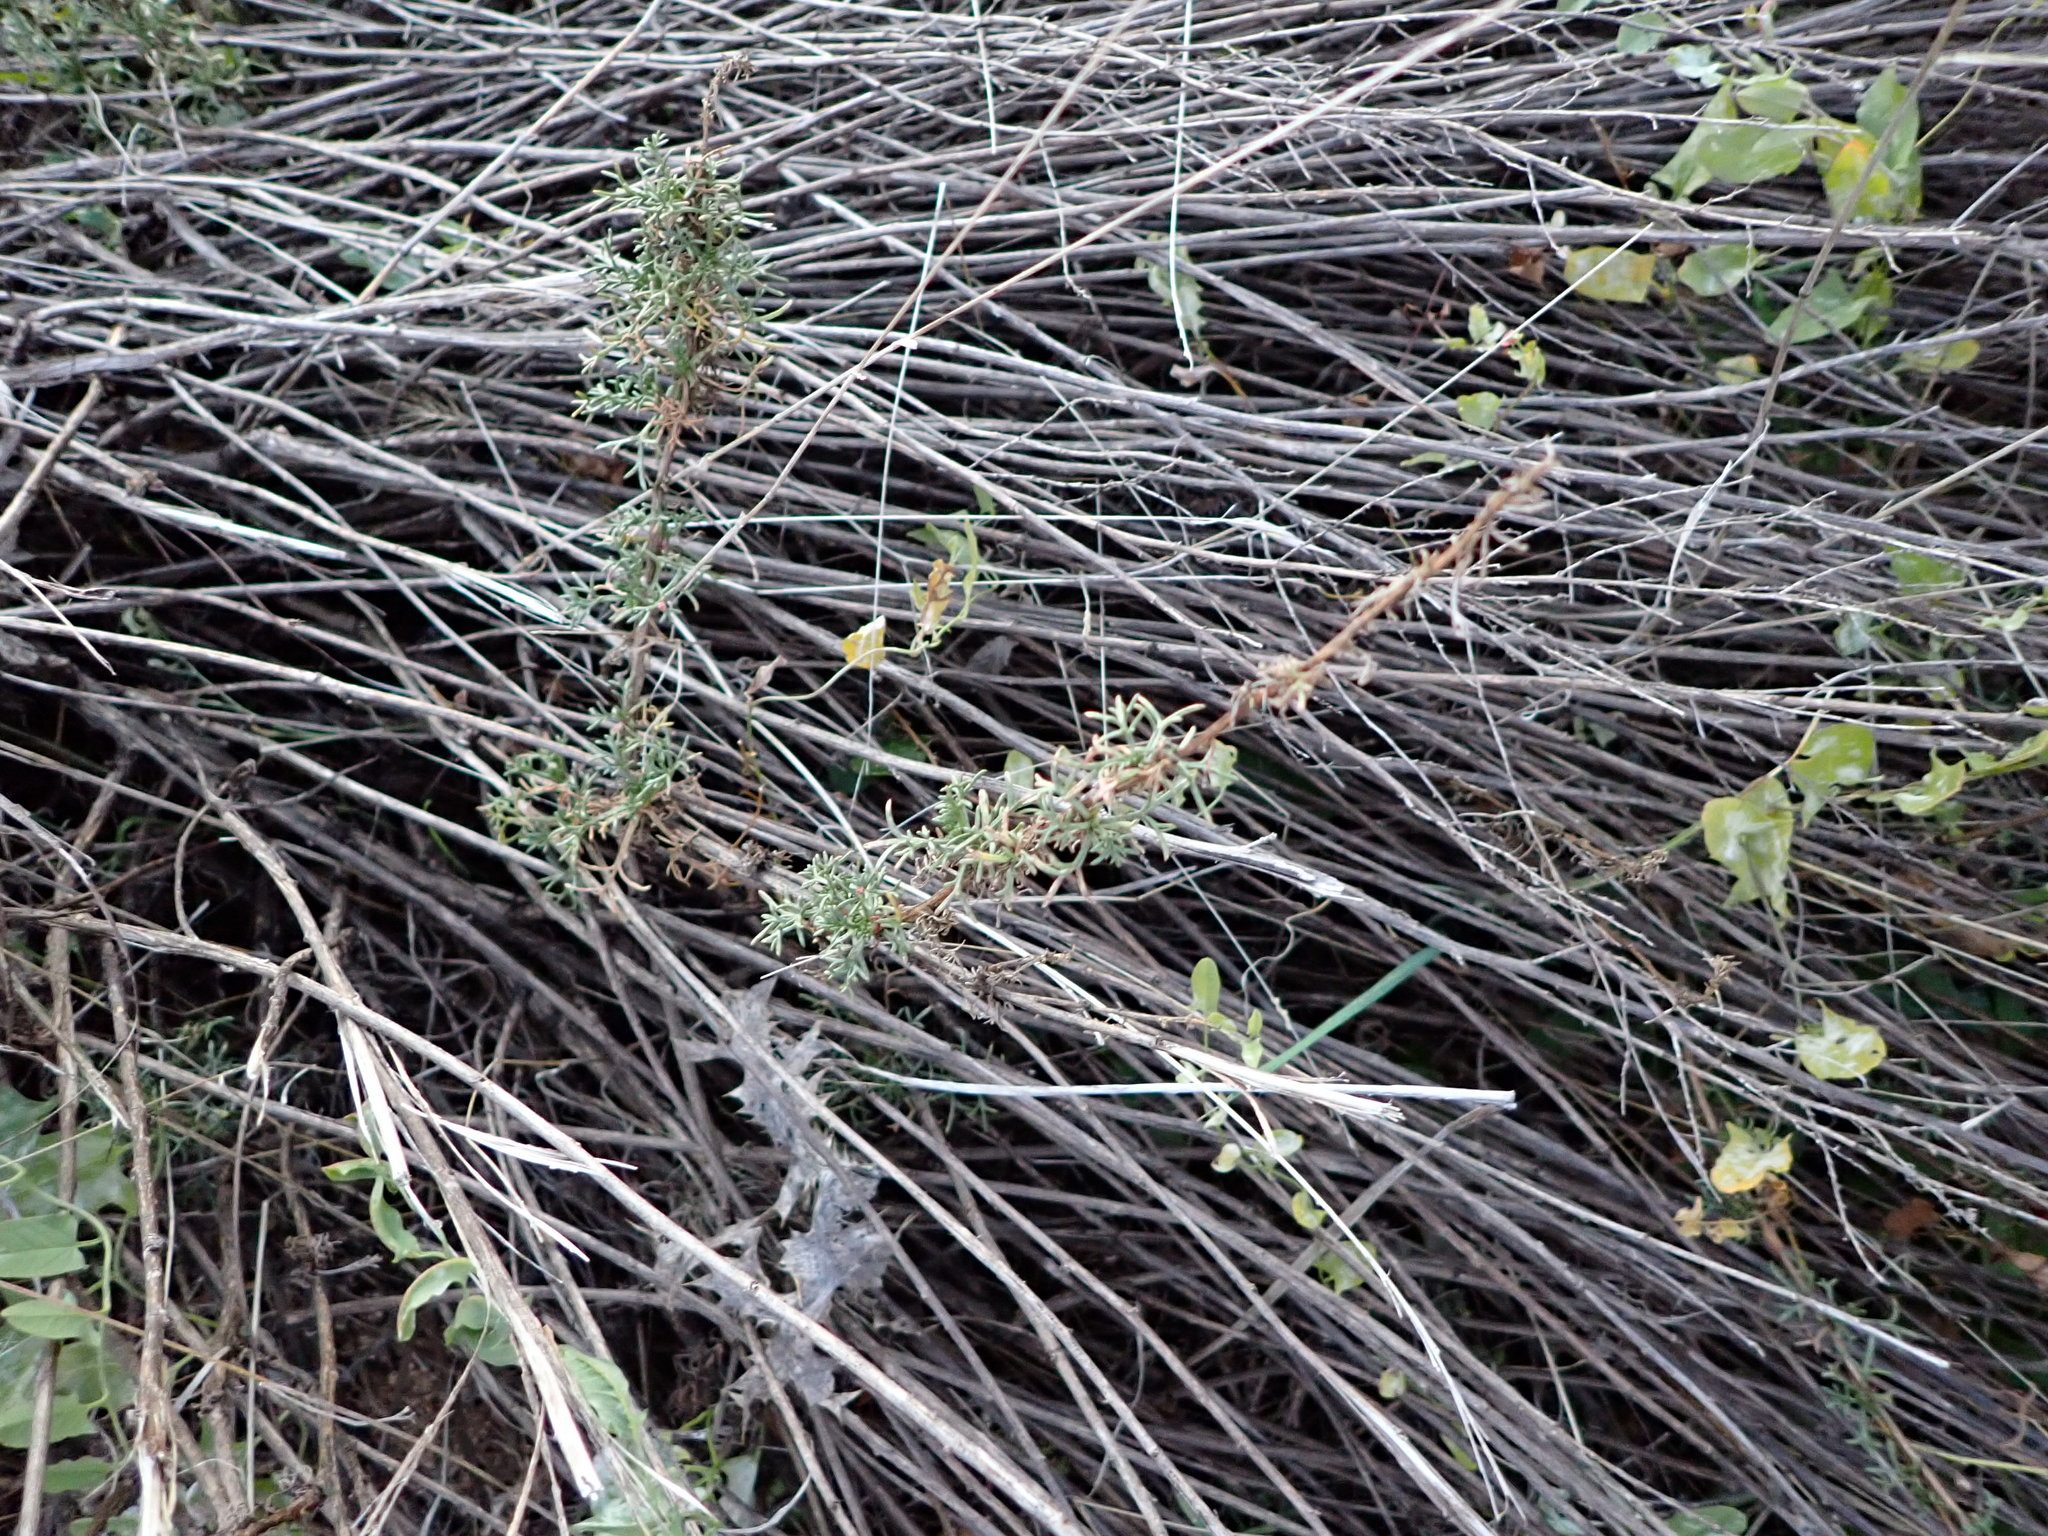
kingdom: Plantae
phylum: Tracheophyta
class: Magnoliopsida
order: Asterales
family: Asteraceae
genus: Artemisia
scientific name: Artemisia campestris
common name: Field wormwood
